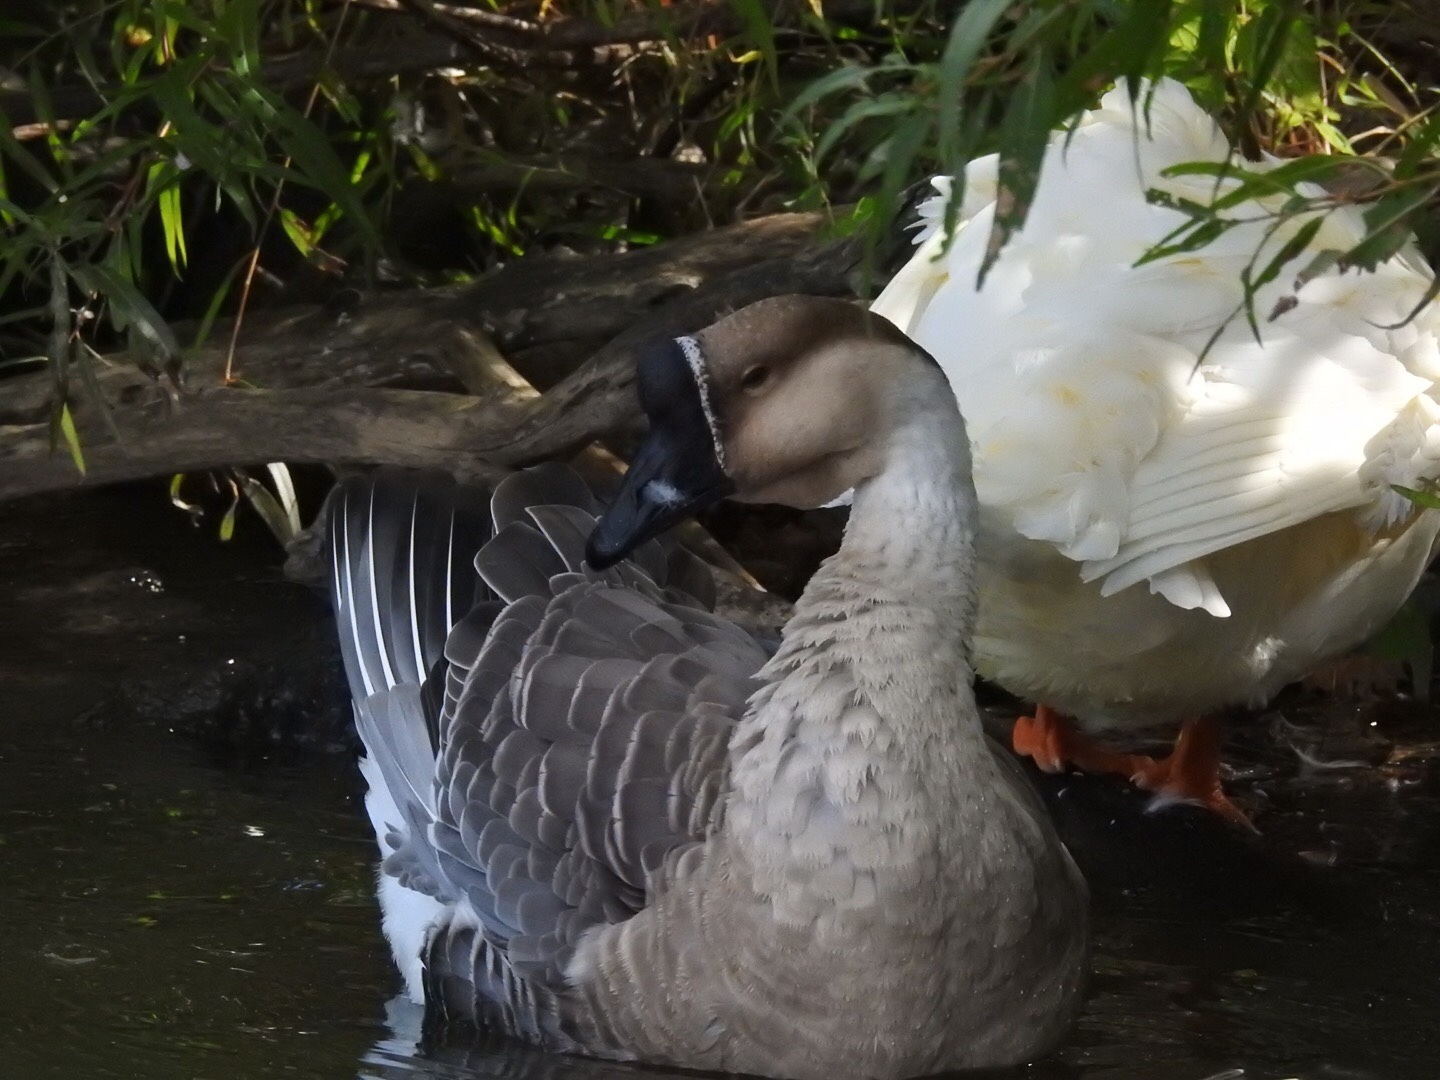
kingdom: Animalia
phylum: Chordata
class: Aves
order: Anseriformes
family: Anatidae
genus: Anser
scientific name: Anser cygnoides
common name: Swan goose
